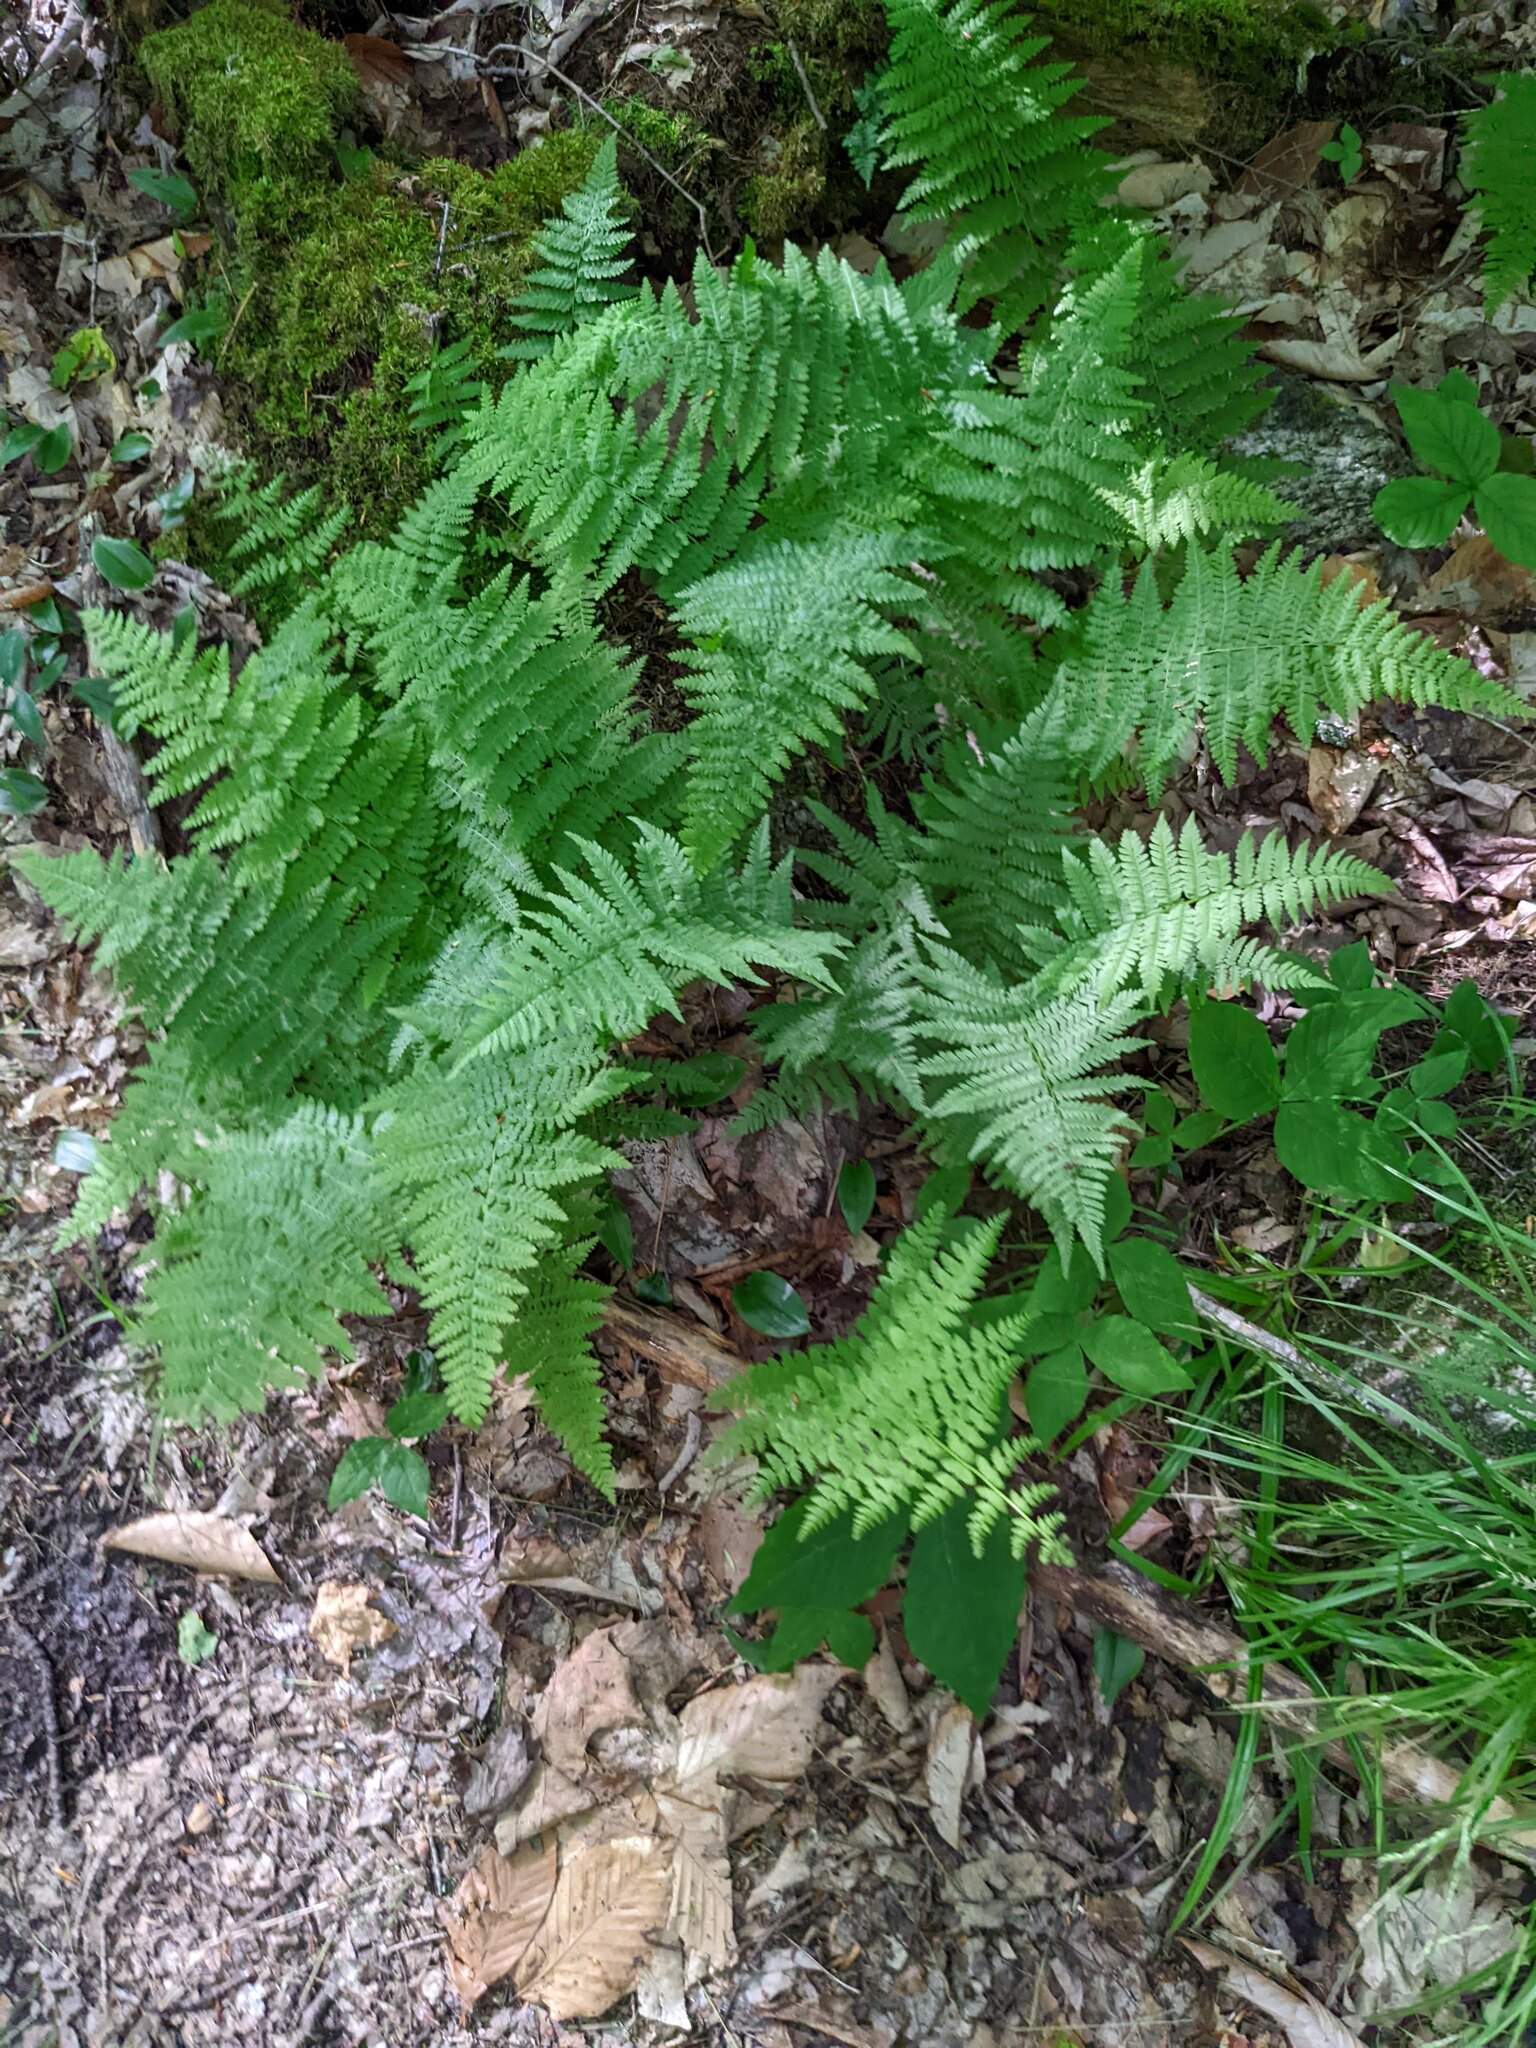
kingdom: Plantae
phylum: Tracheophyta
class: Polypodiopsida
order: Polypodiales
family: Dennstaedtiaceae
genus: Sitobolium
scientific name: Sitobolium punctilobum
